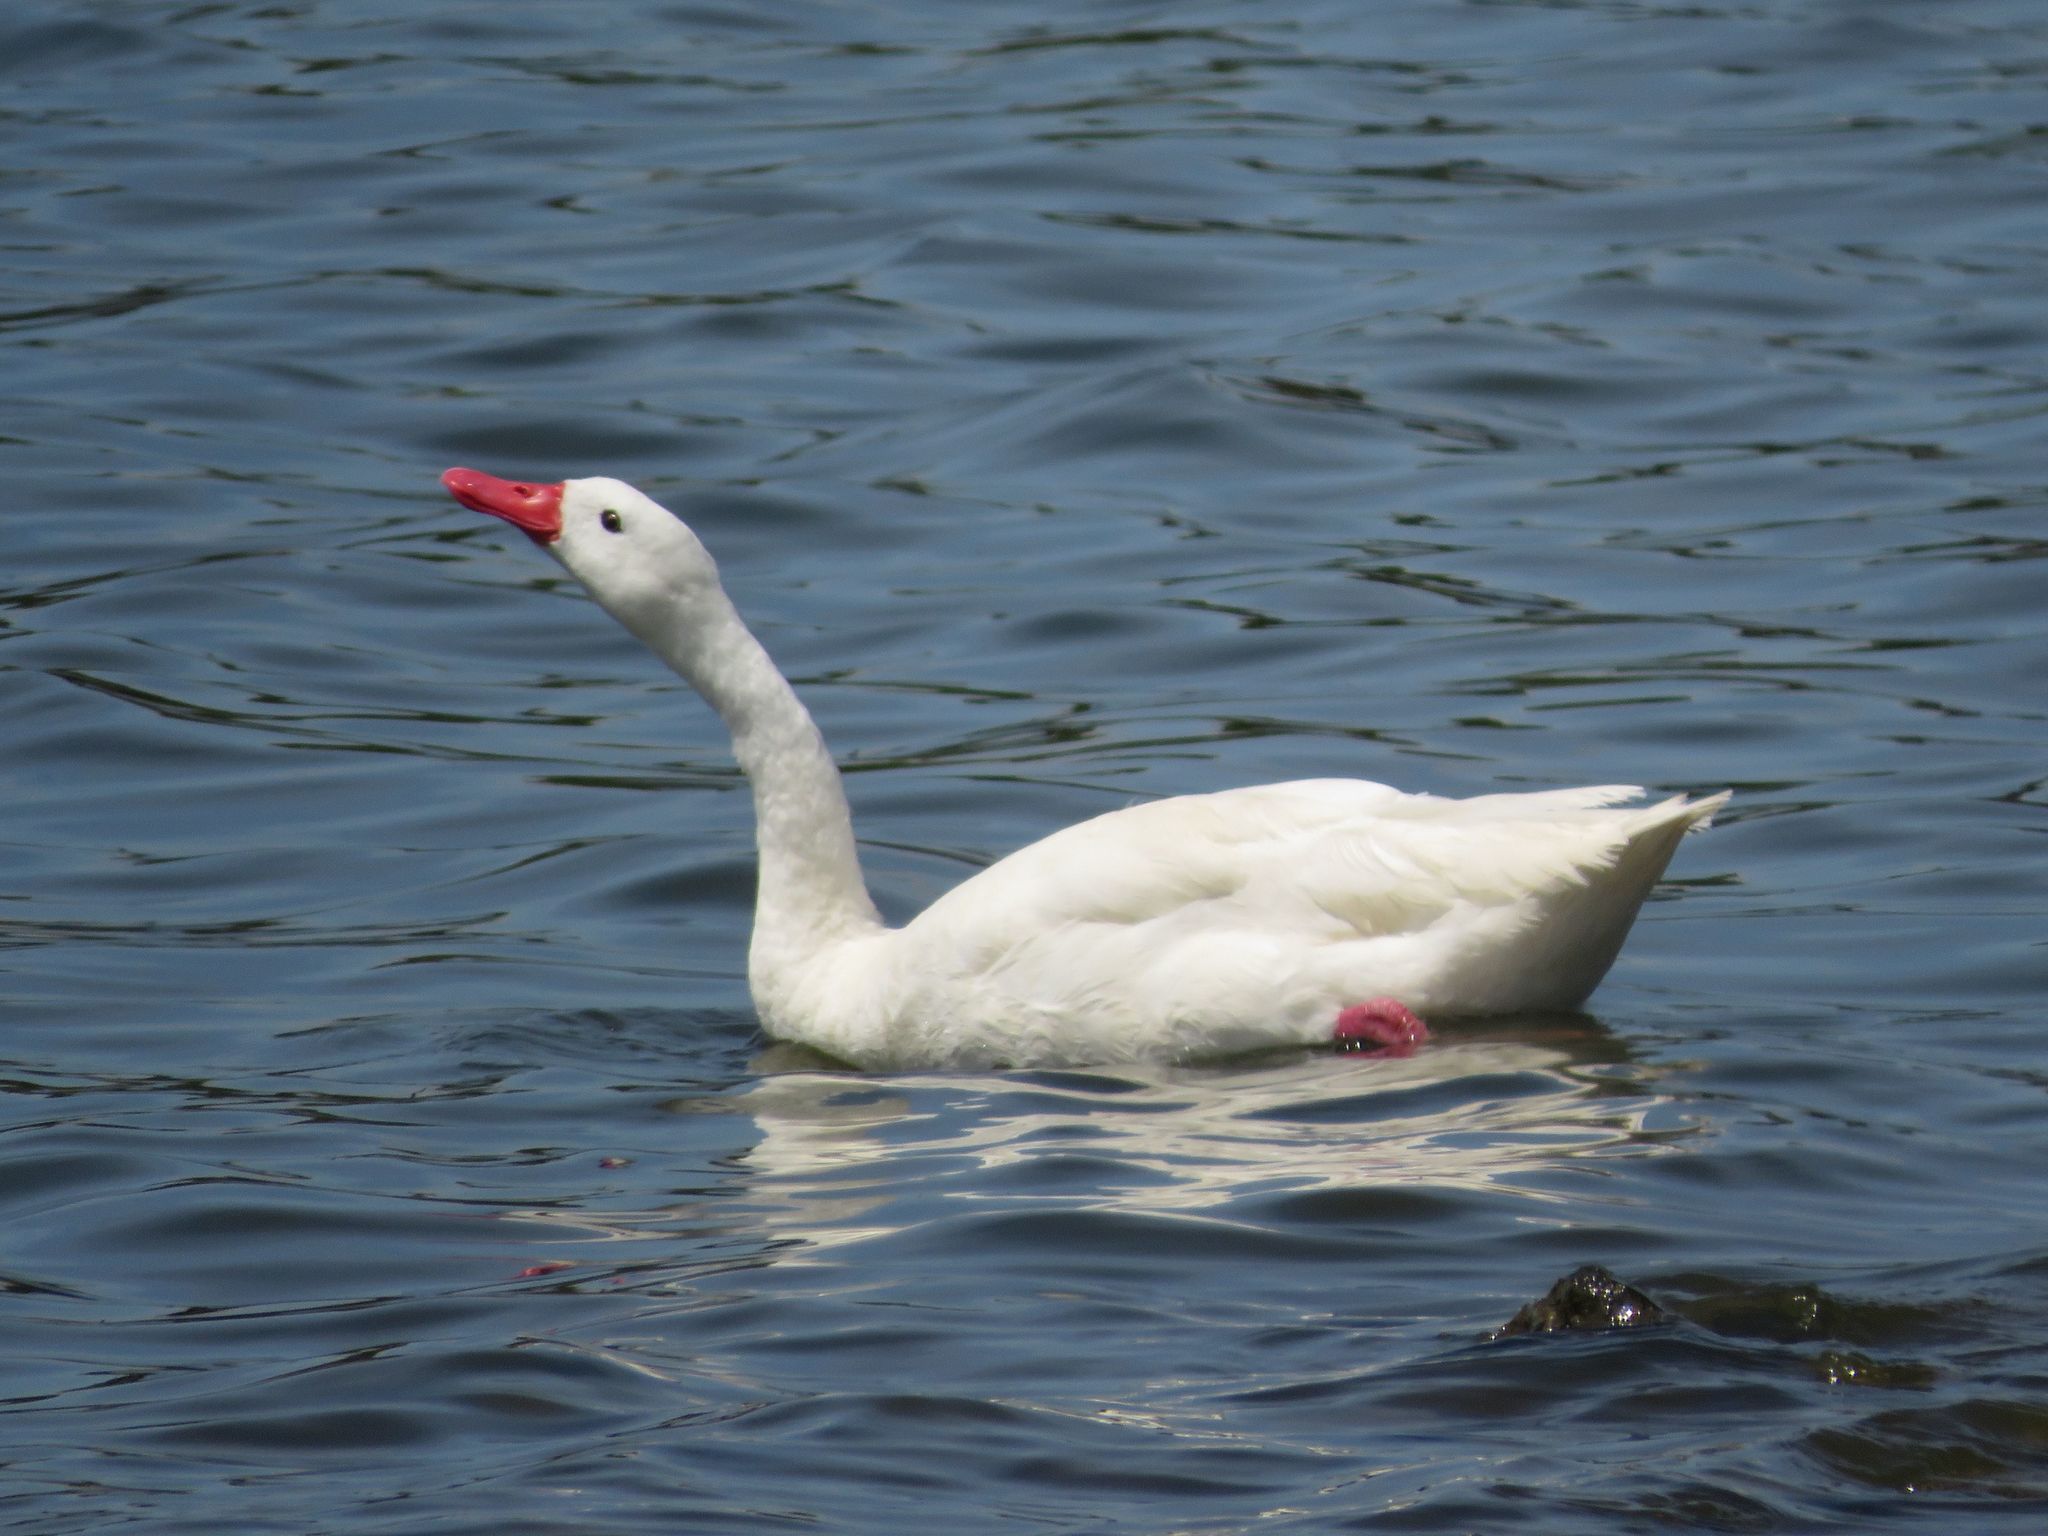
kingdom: Animalia
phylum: Chordata
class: Aves
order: Anseriformes
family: Anatidae
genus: Coscoroba
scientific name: Coscoroba coscoroba
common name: Coscoroba swan
